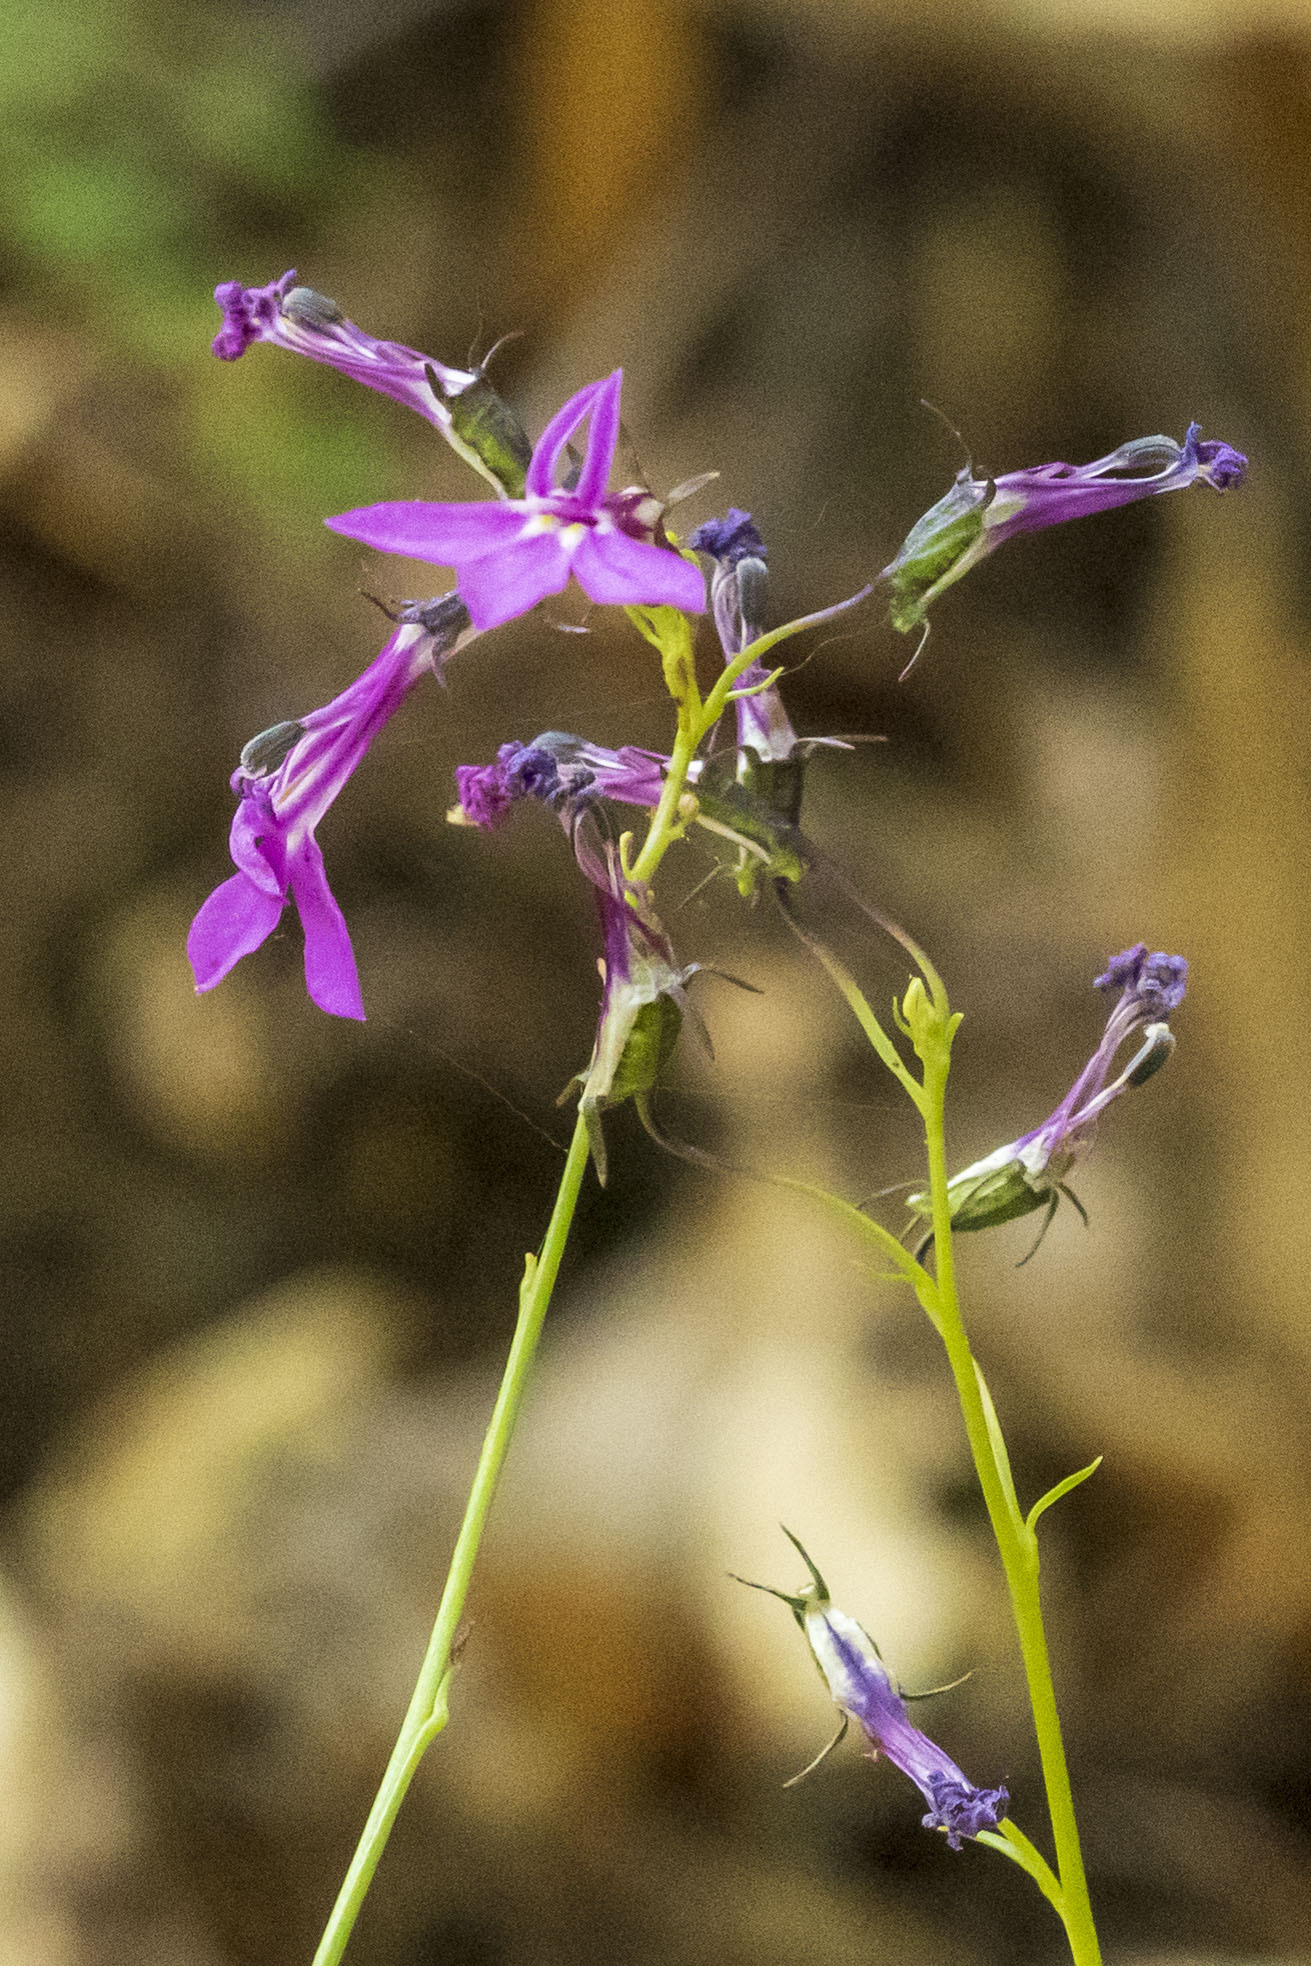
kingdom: Plantae
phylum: Tracheophyta
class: Magnoliopsida
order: Asterales
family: Campanulaceae
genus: Lobelia
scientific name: Lobelia aurita
